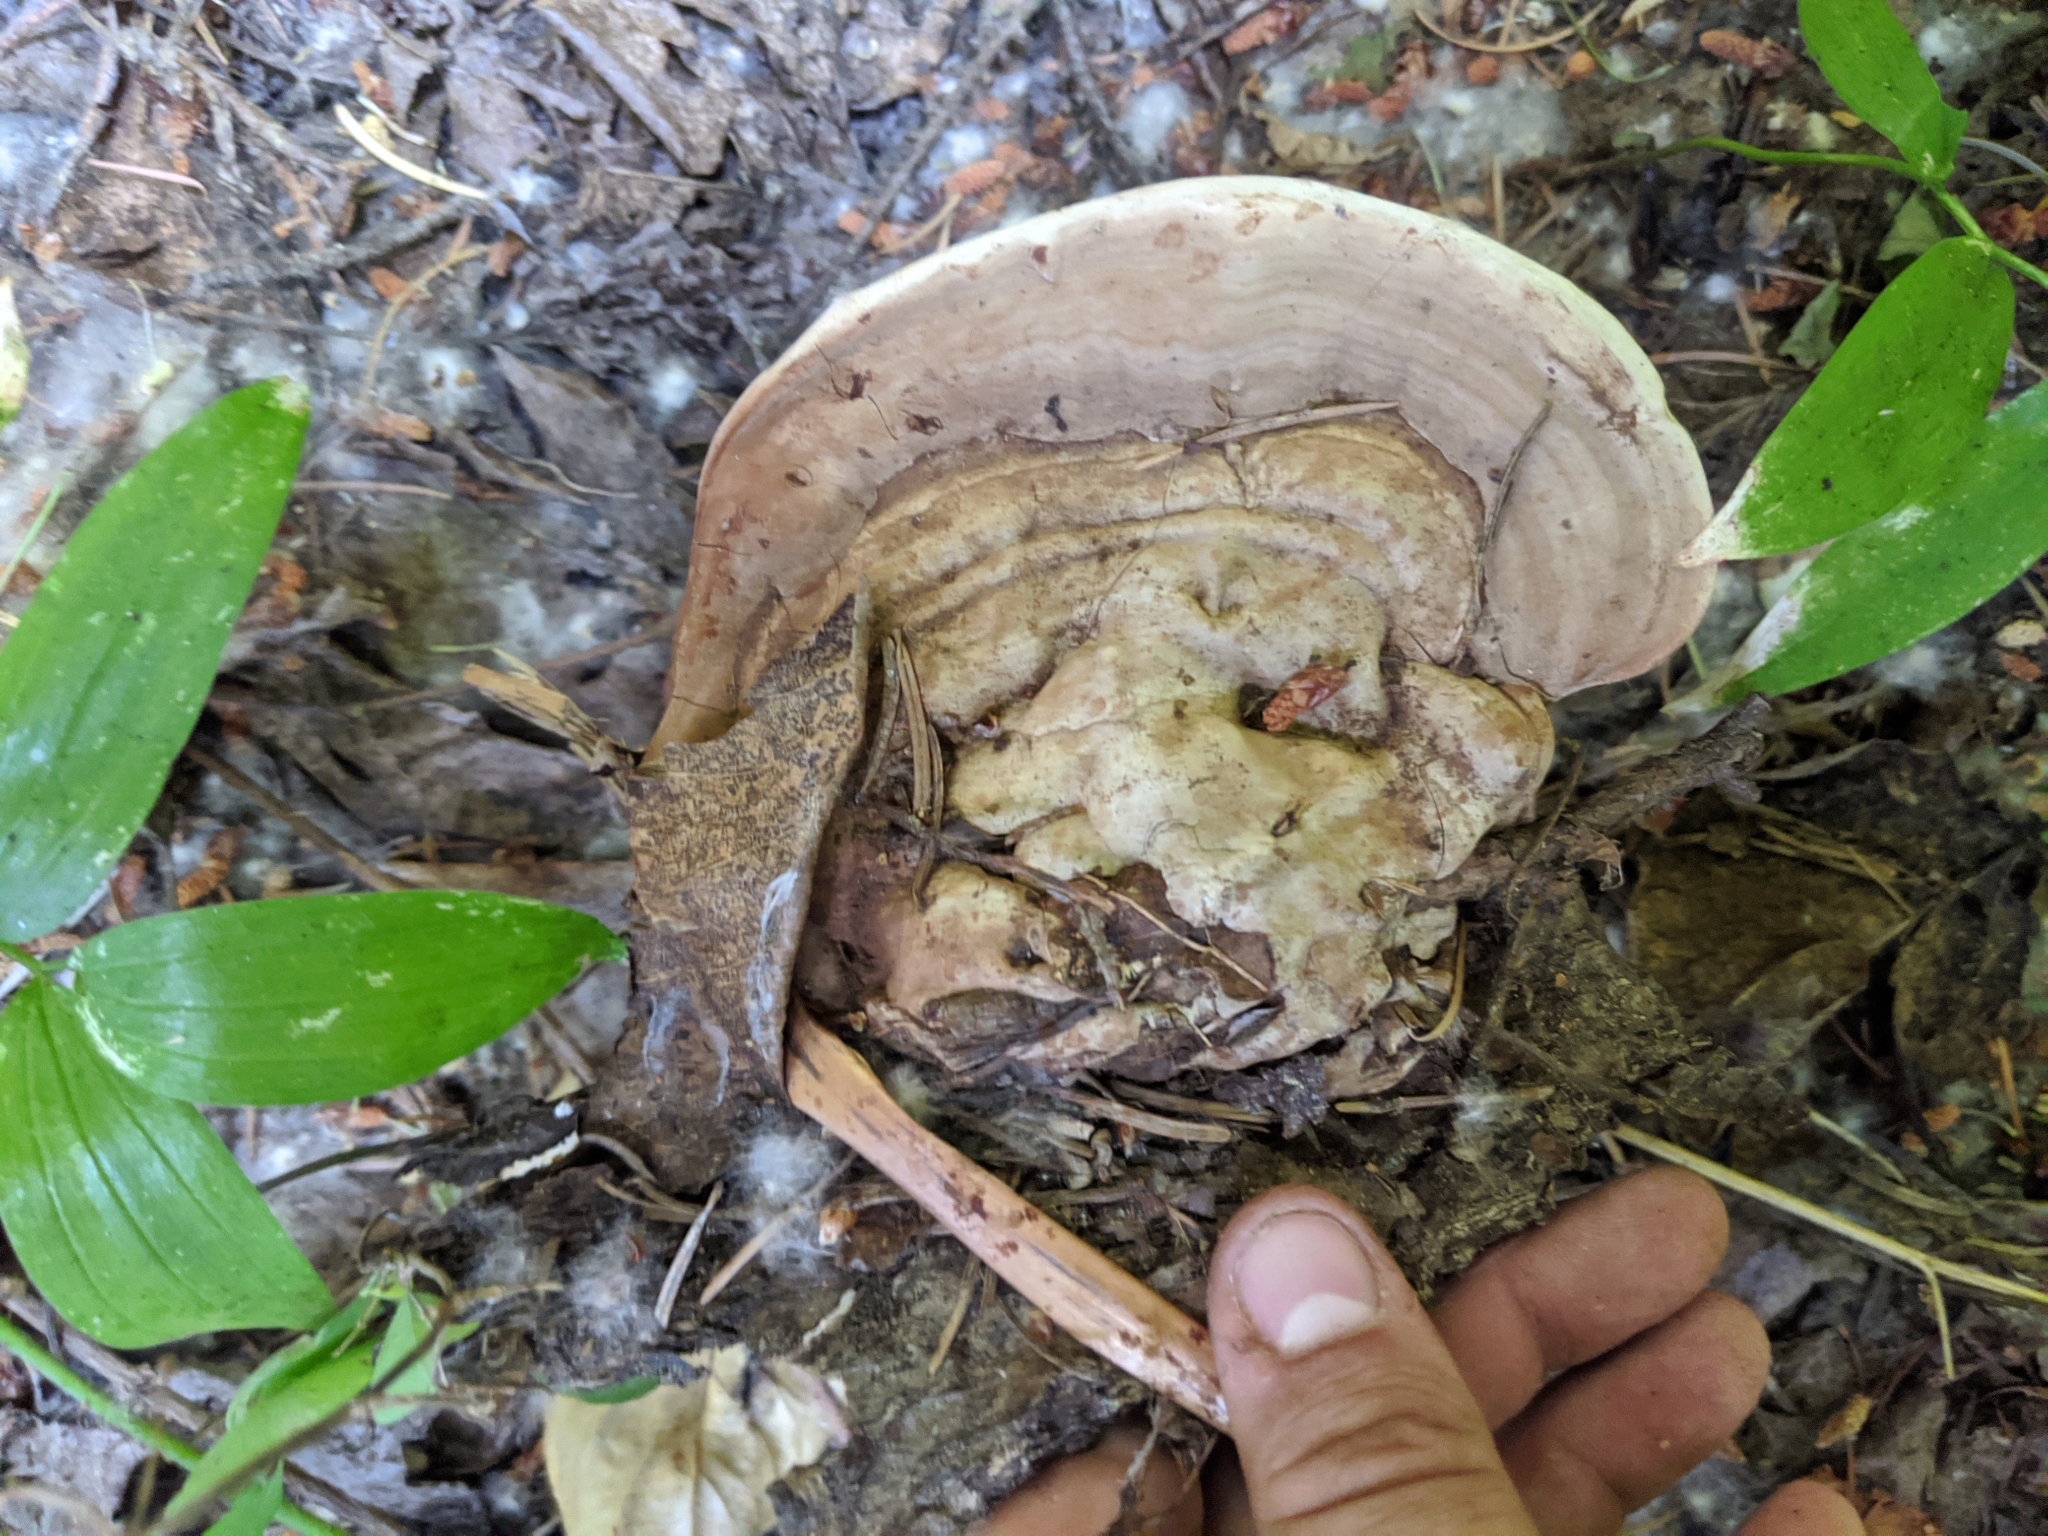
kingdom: Fungi
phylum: Basidiomycota
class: Agaricomycetes
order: Polyporales
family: Polyporaceae
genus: Ganoderma
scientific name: Ganoderma applanatum
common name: Artist's bracket
